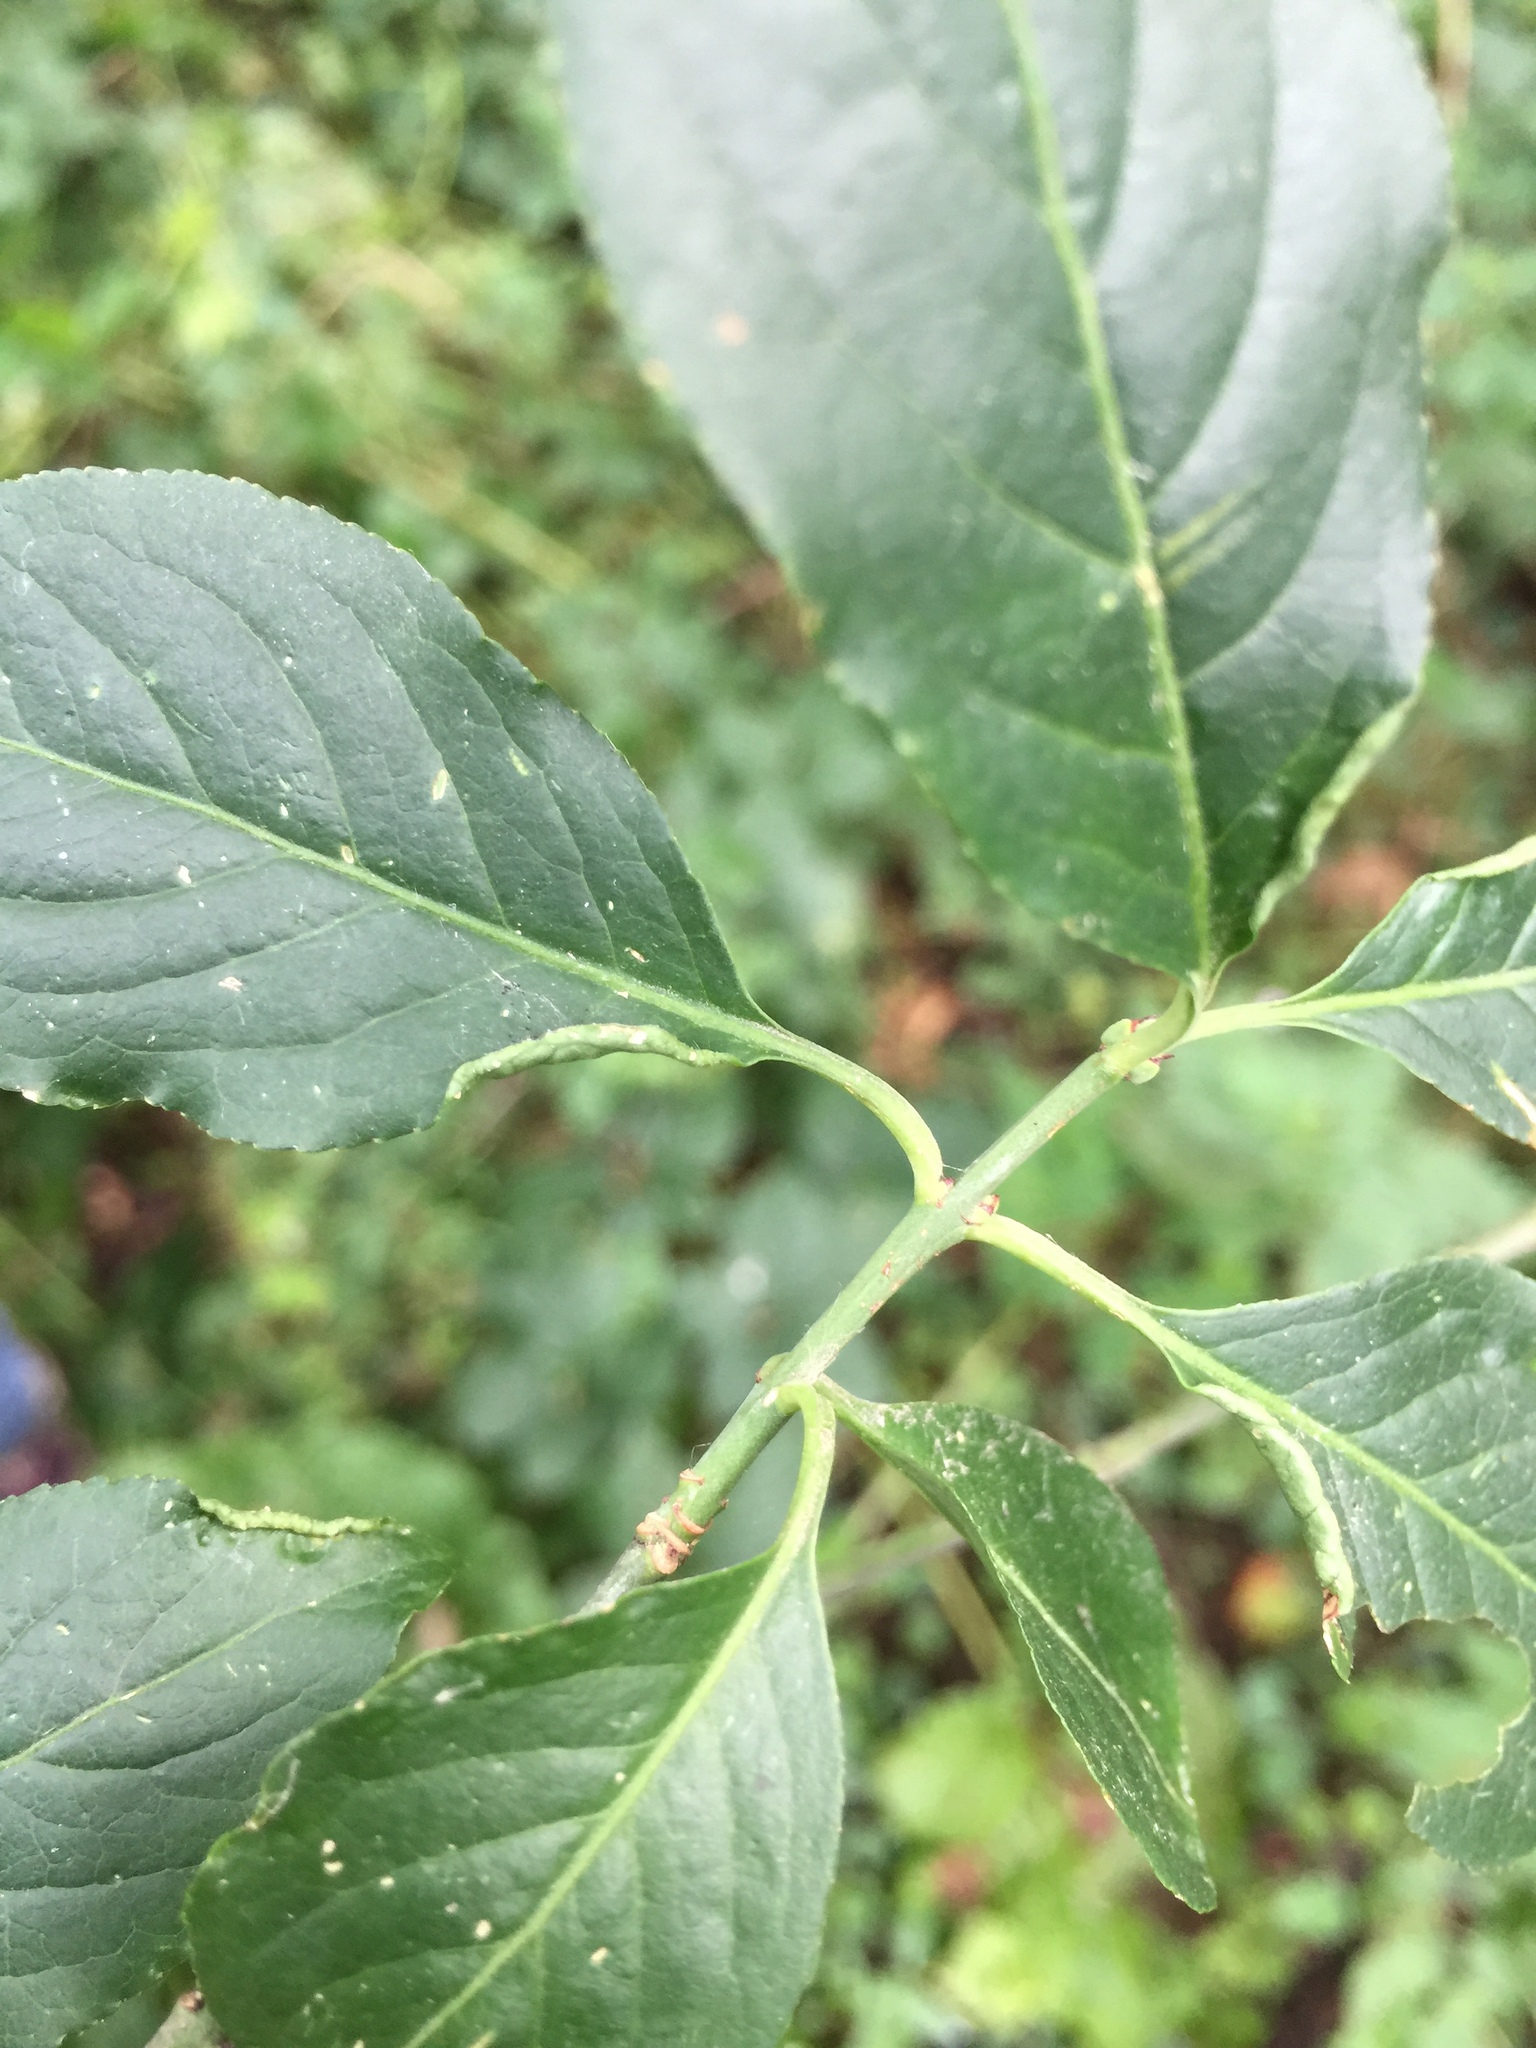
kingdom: Animalia
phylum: Arthropoda
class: Arachnida
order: Trombidiformes
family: Eriophyidae
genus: Stenacis
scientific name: Stenacis evonymi
